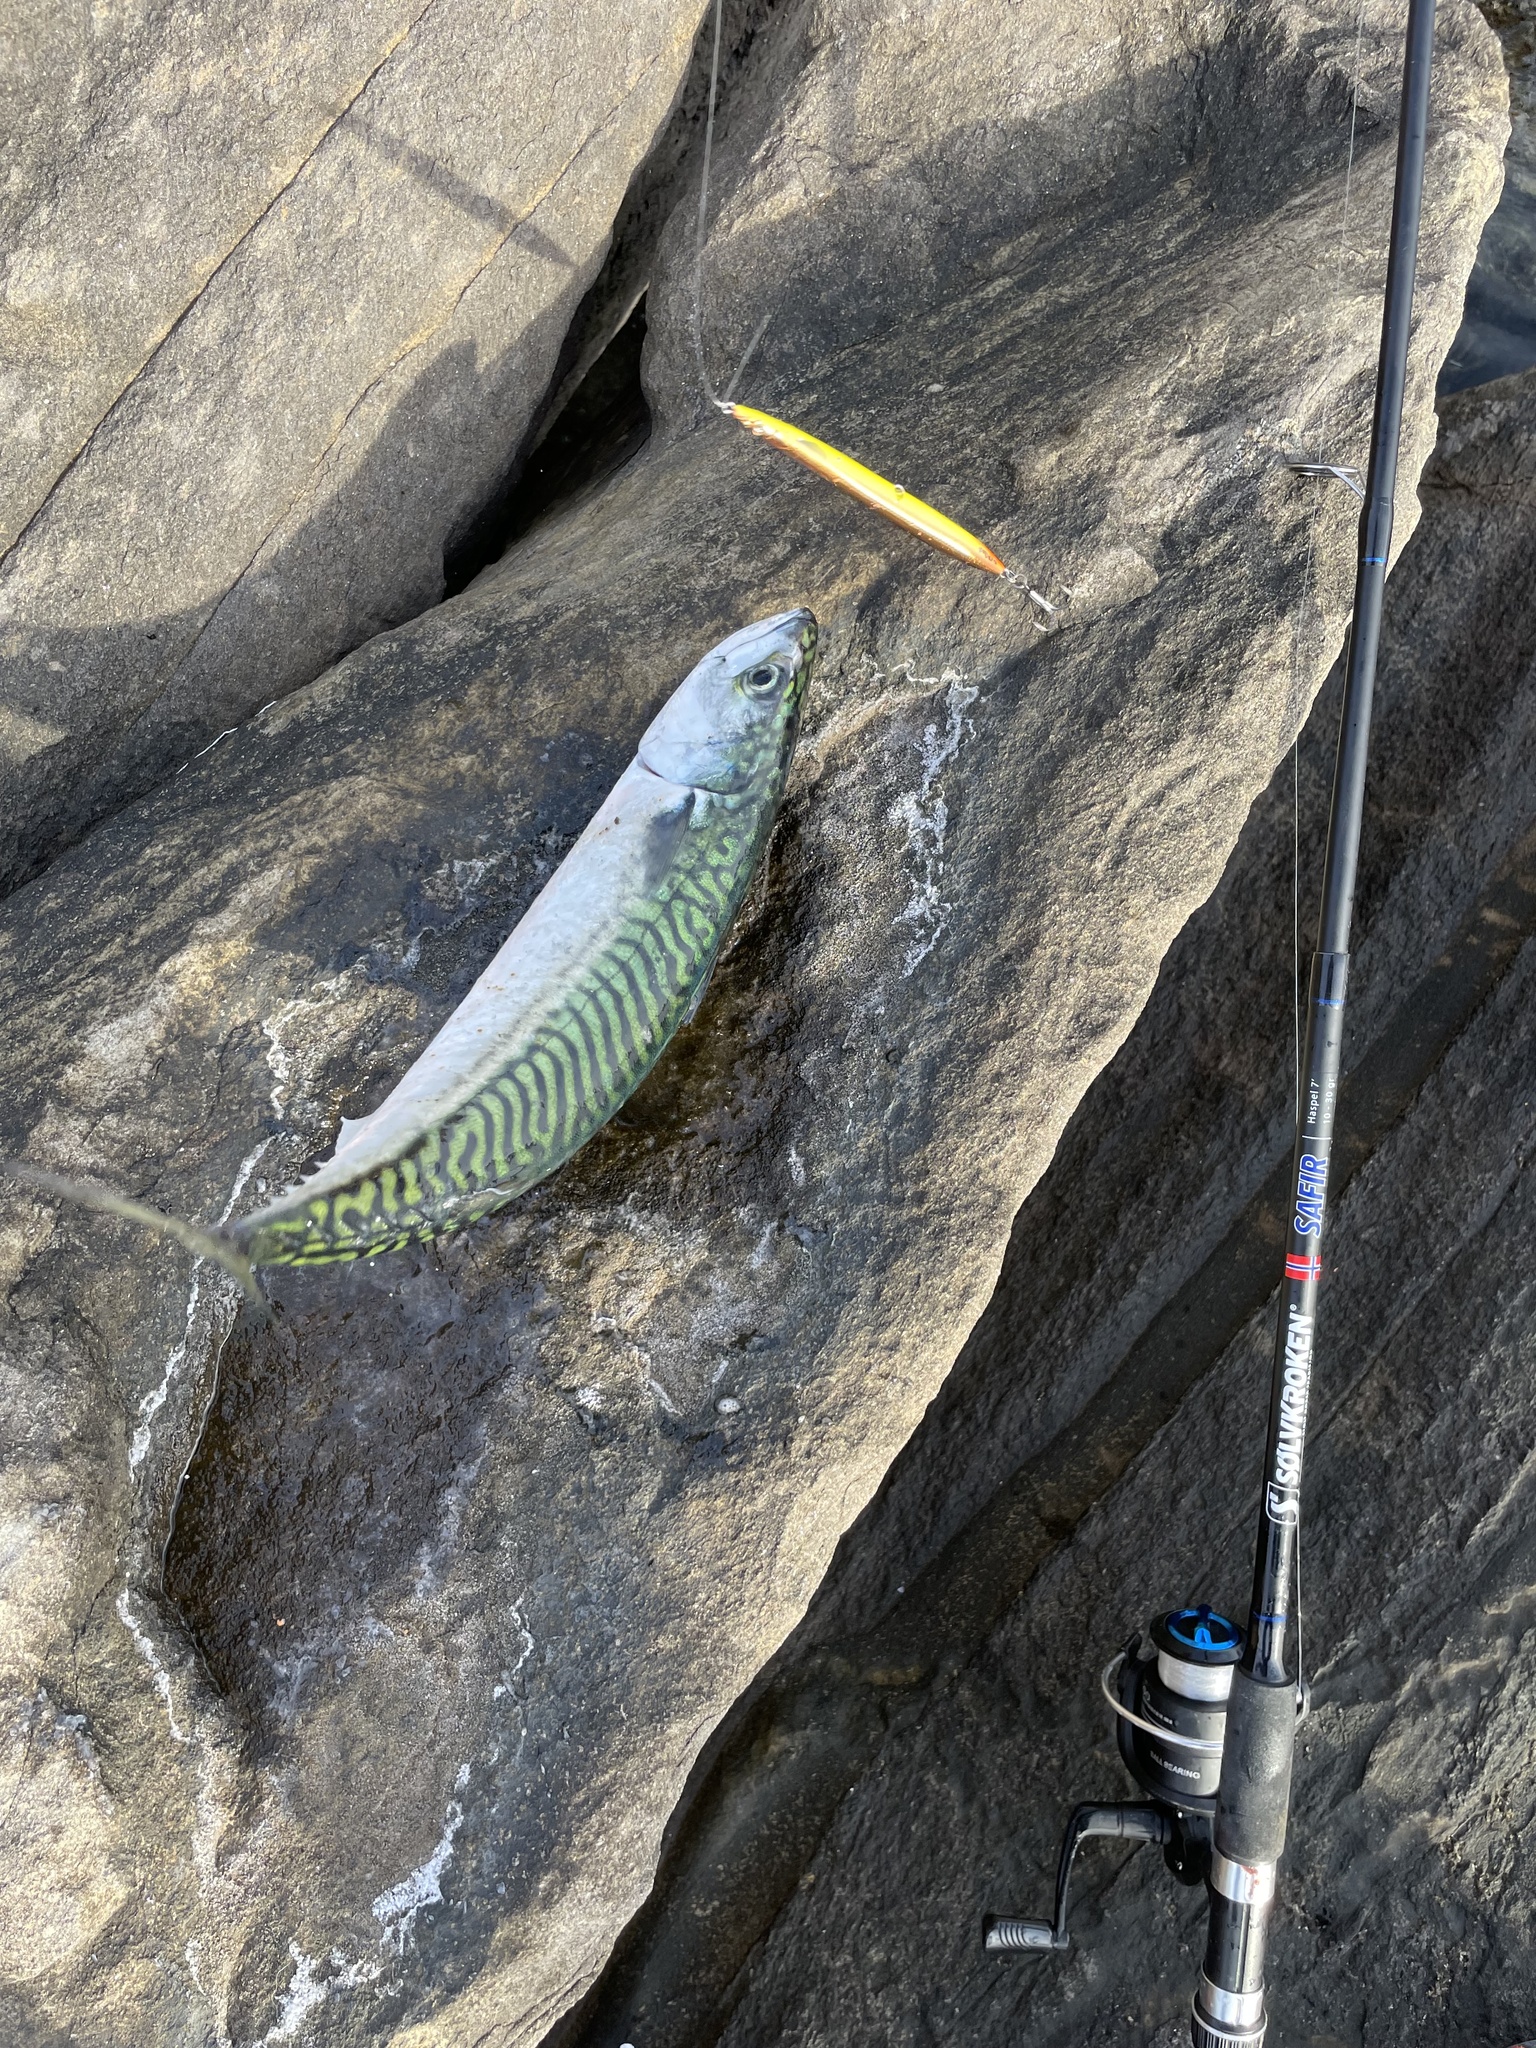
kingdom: Animalia
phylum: Chordata
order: Perciformes
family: Scombridae
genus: Scomber
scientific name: Scomber scombrus
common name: Mackerel
